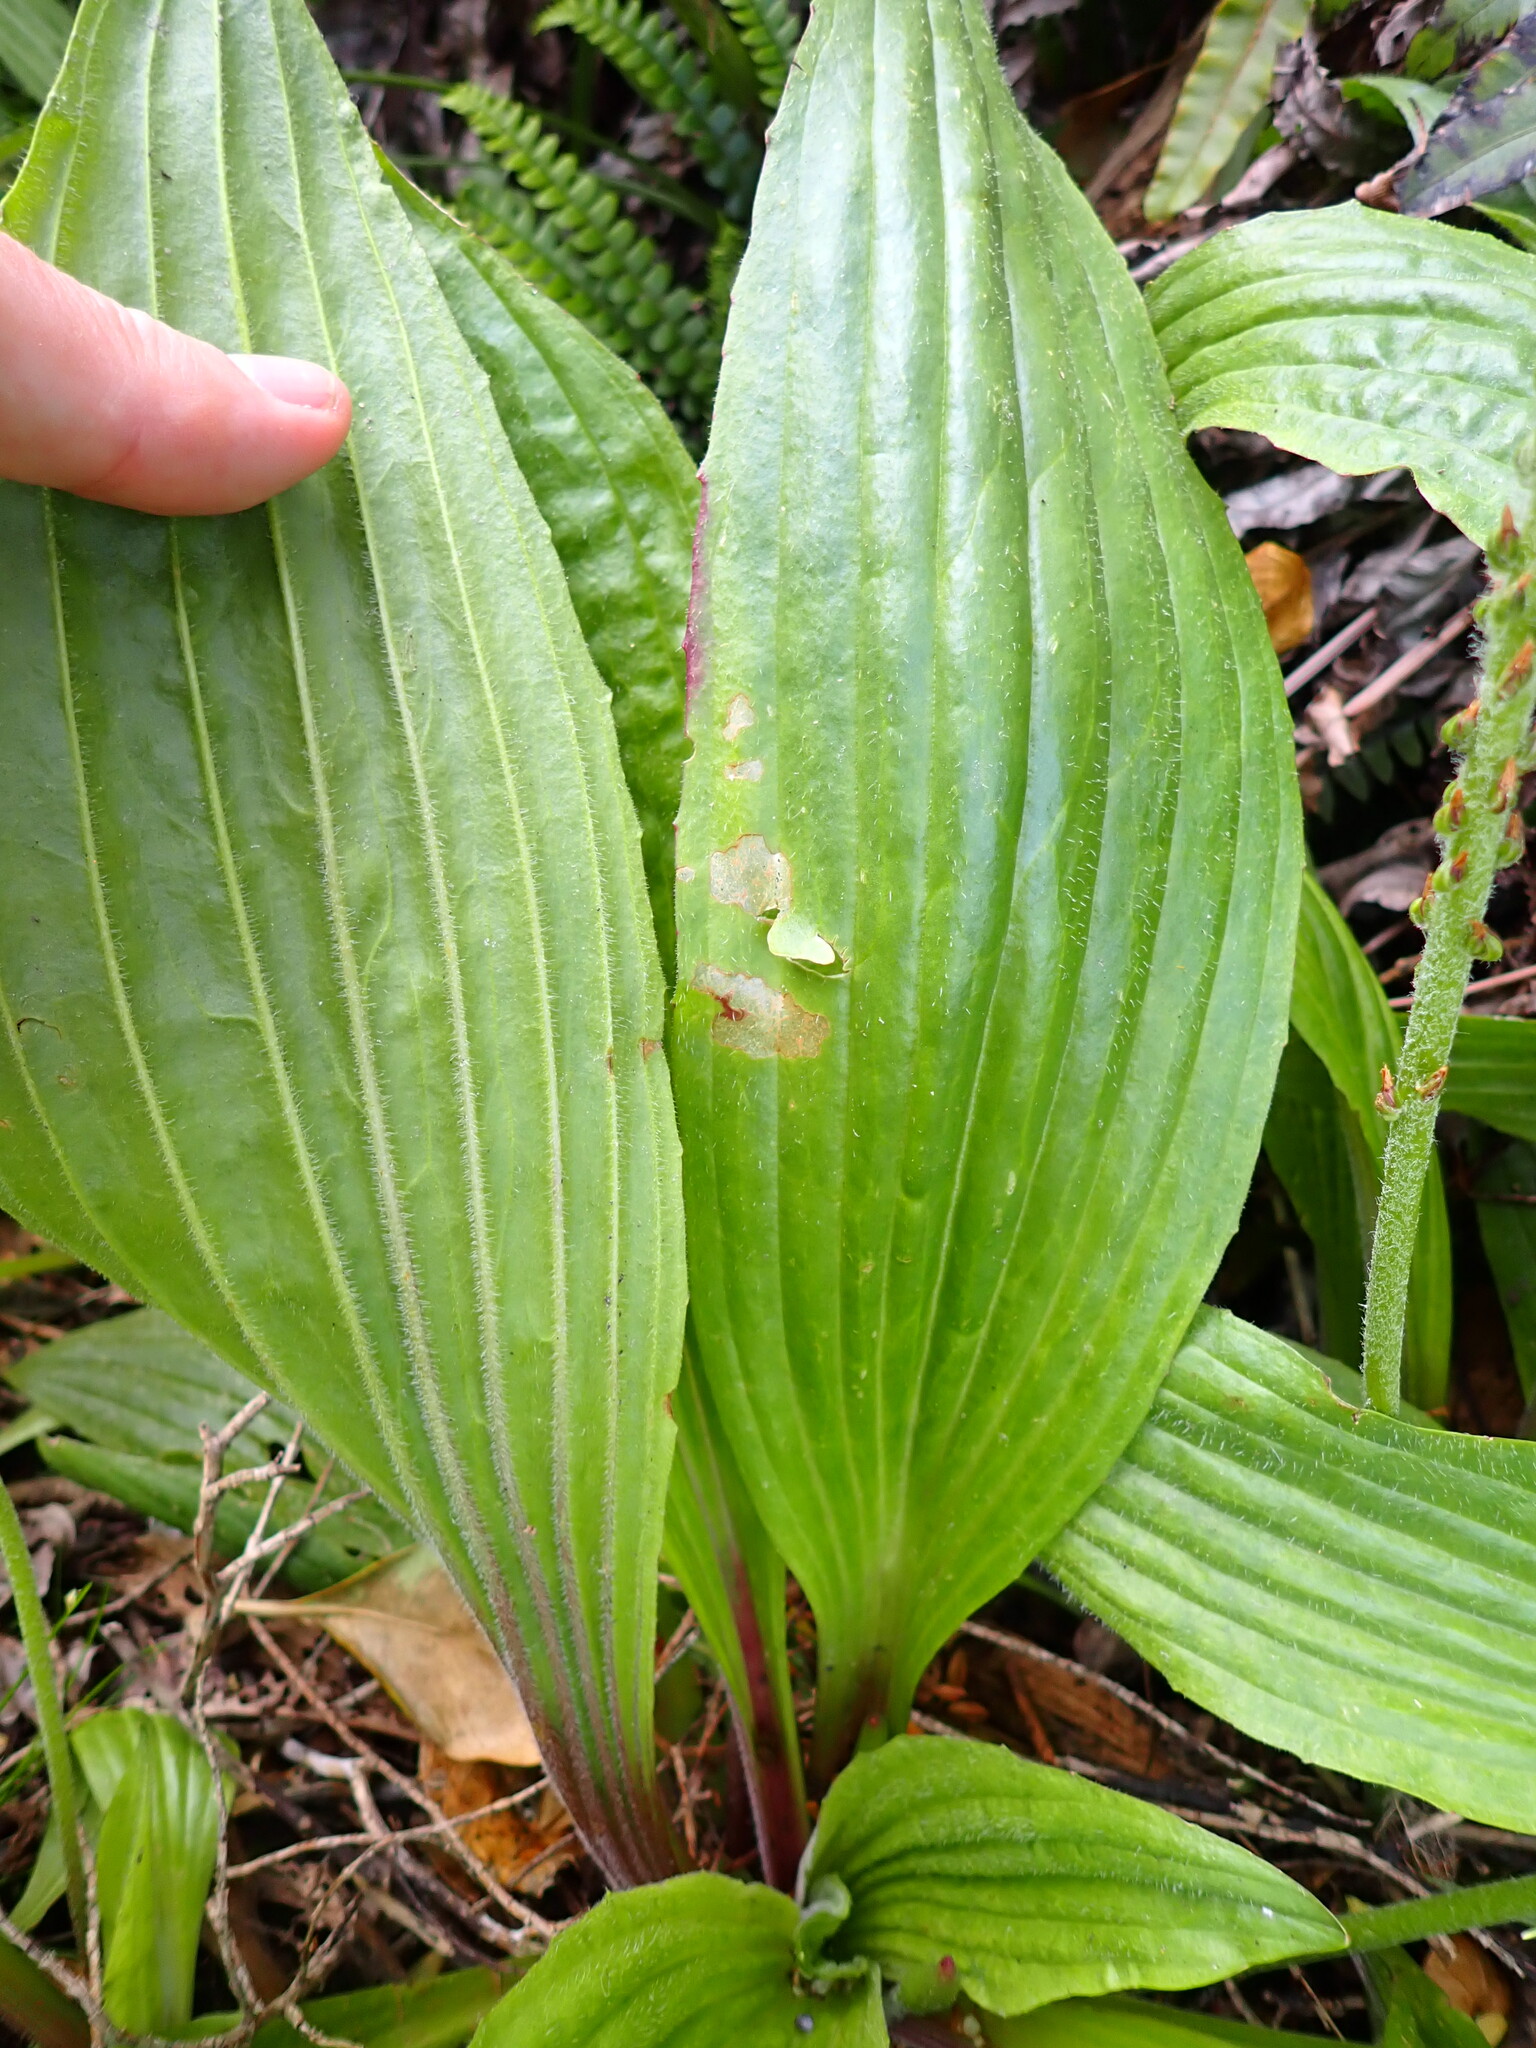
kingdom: Plantae
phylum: Tracheophyta
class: Magnoliopsida
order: Lamiales
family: Plantaginaceae
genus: Plantago
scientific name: Plantago australis
